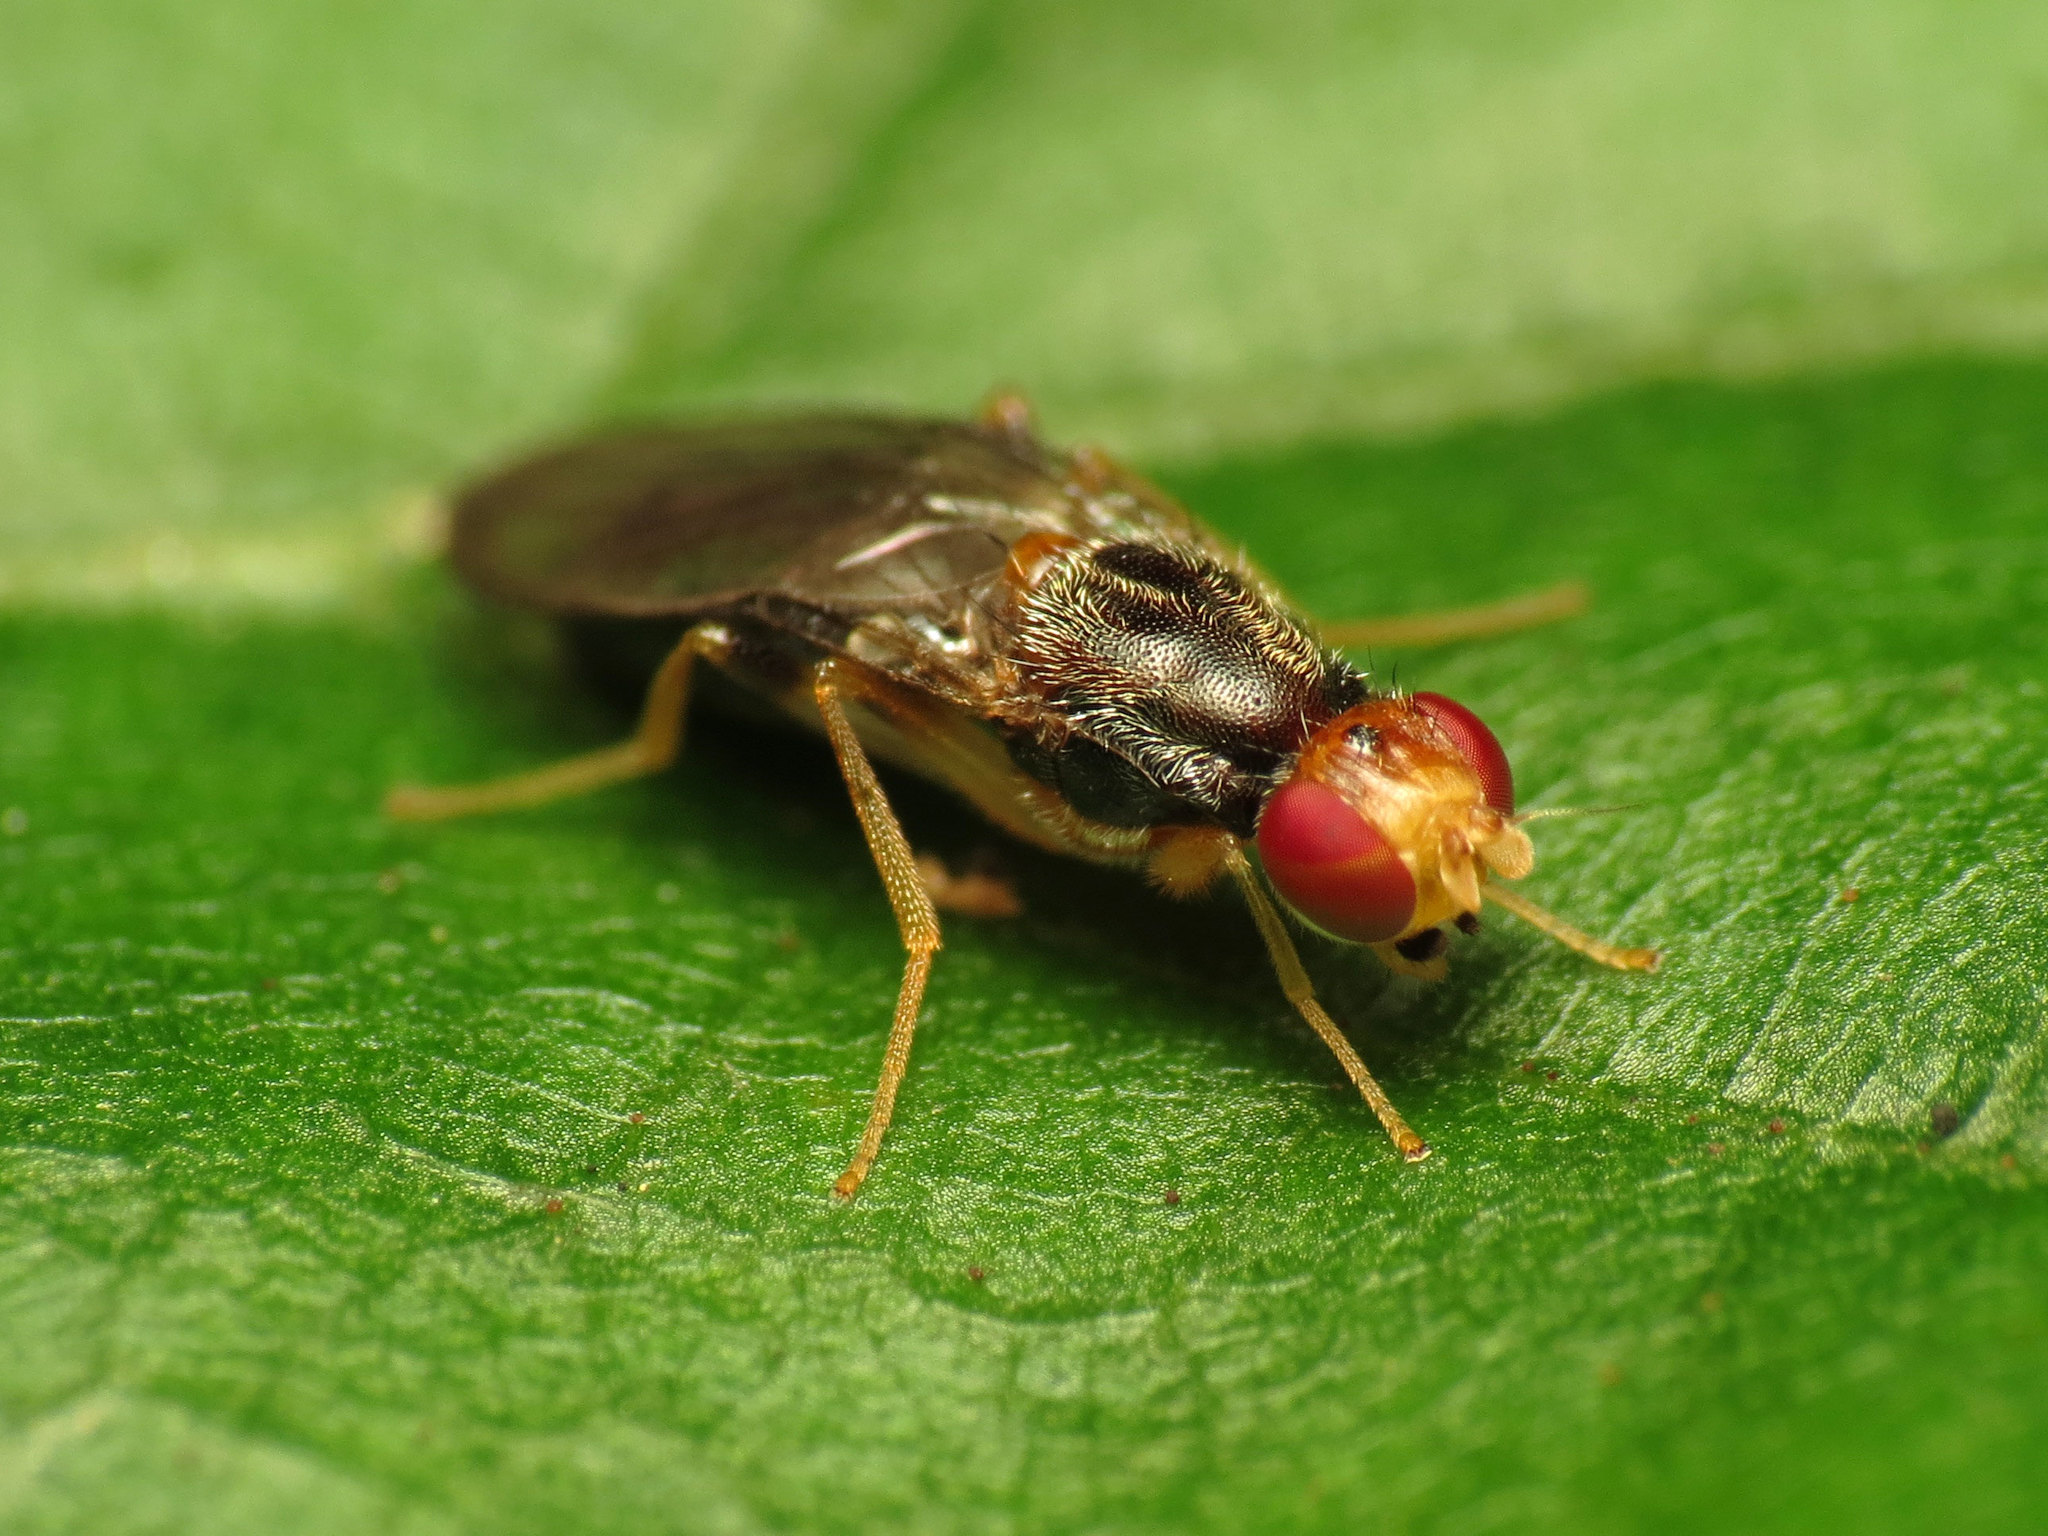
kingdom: Animalia
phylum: Arthropoda
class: Insecta
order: Diptera
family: Psilidae
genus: Chyliza
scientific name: Chyliza notata
